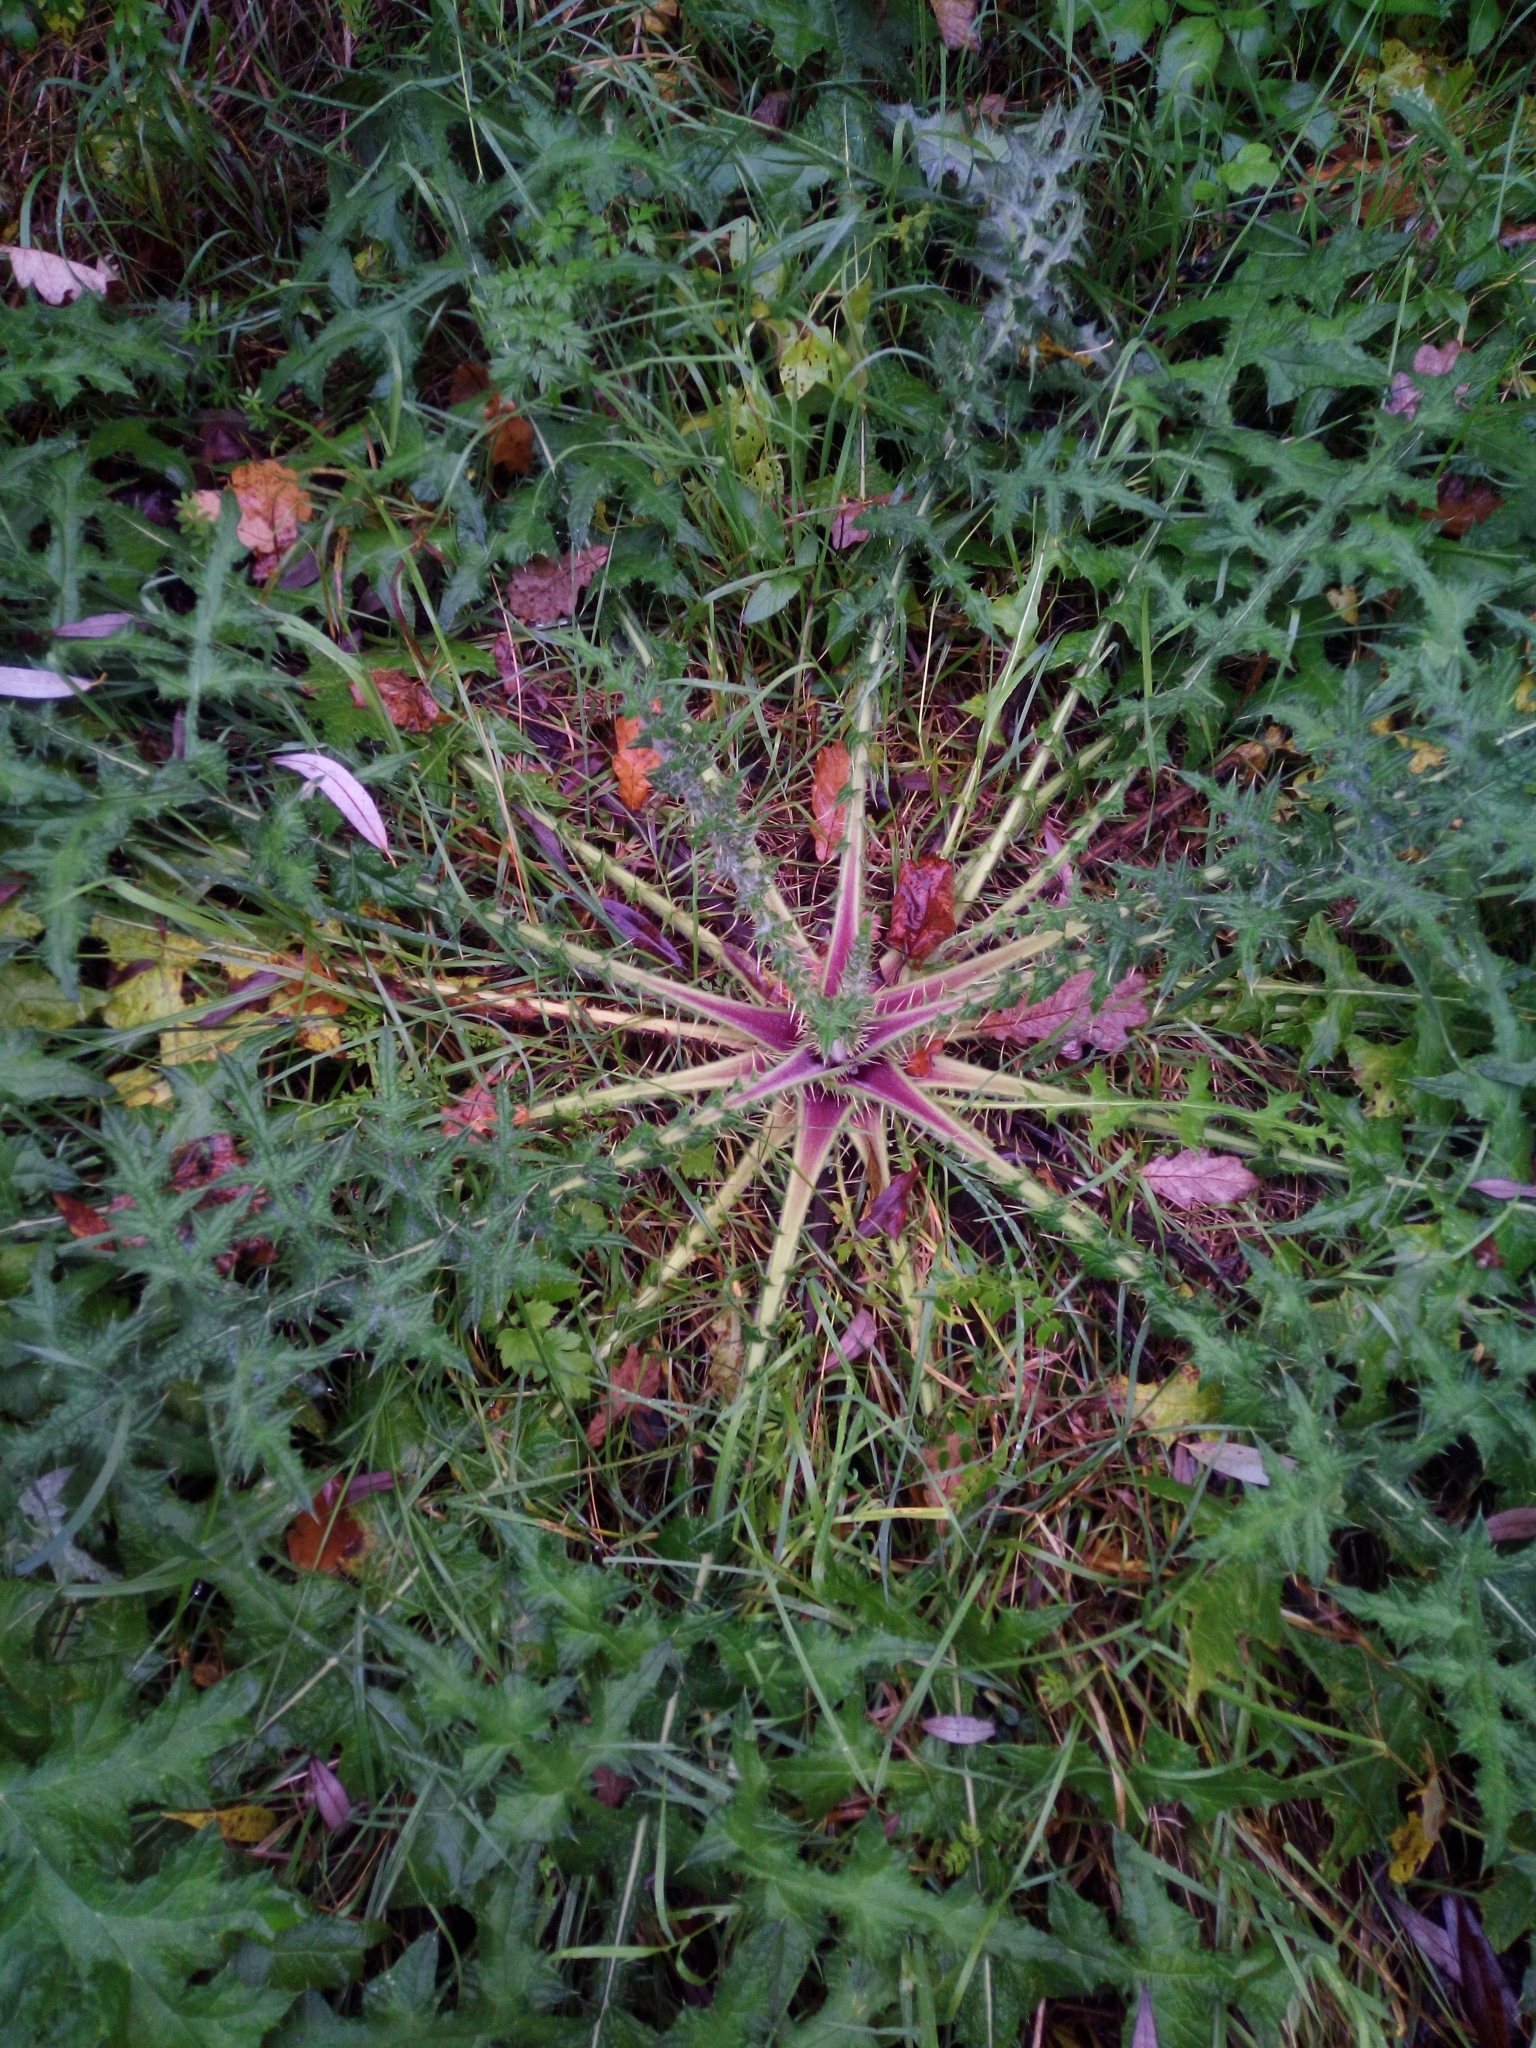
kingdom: Plantae
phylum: Tracheophyta
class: Magnoliopsida
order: Asterales
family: Asteraceae
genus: Cirsium
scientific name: Cirsium palustre
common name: Marsh thistle
